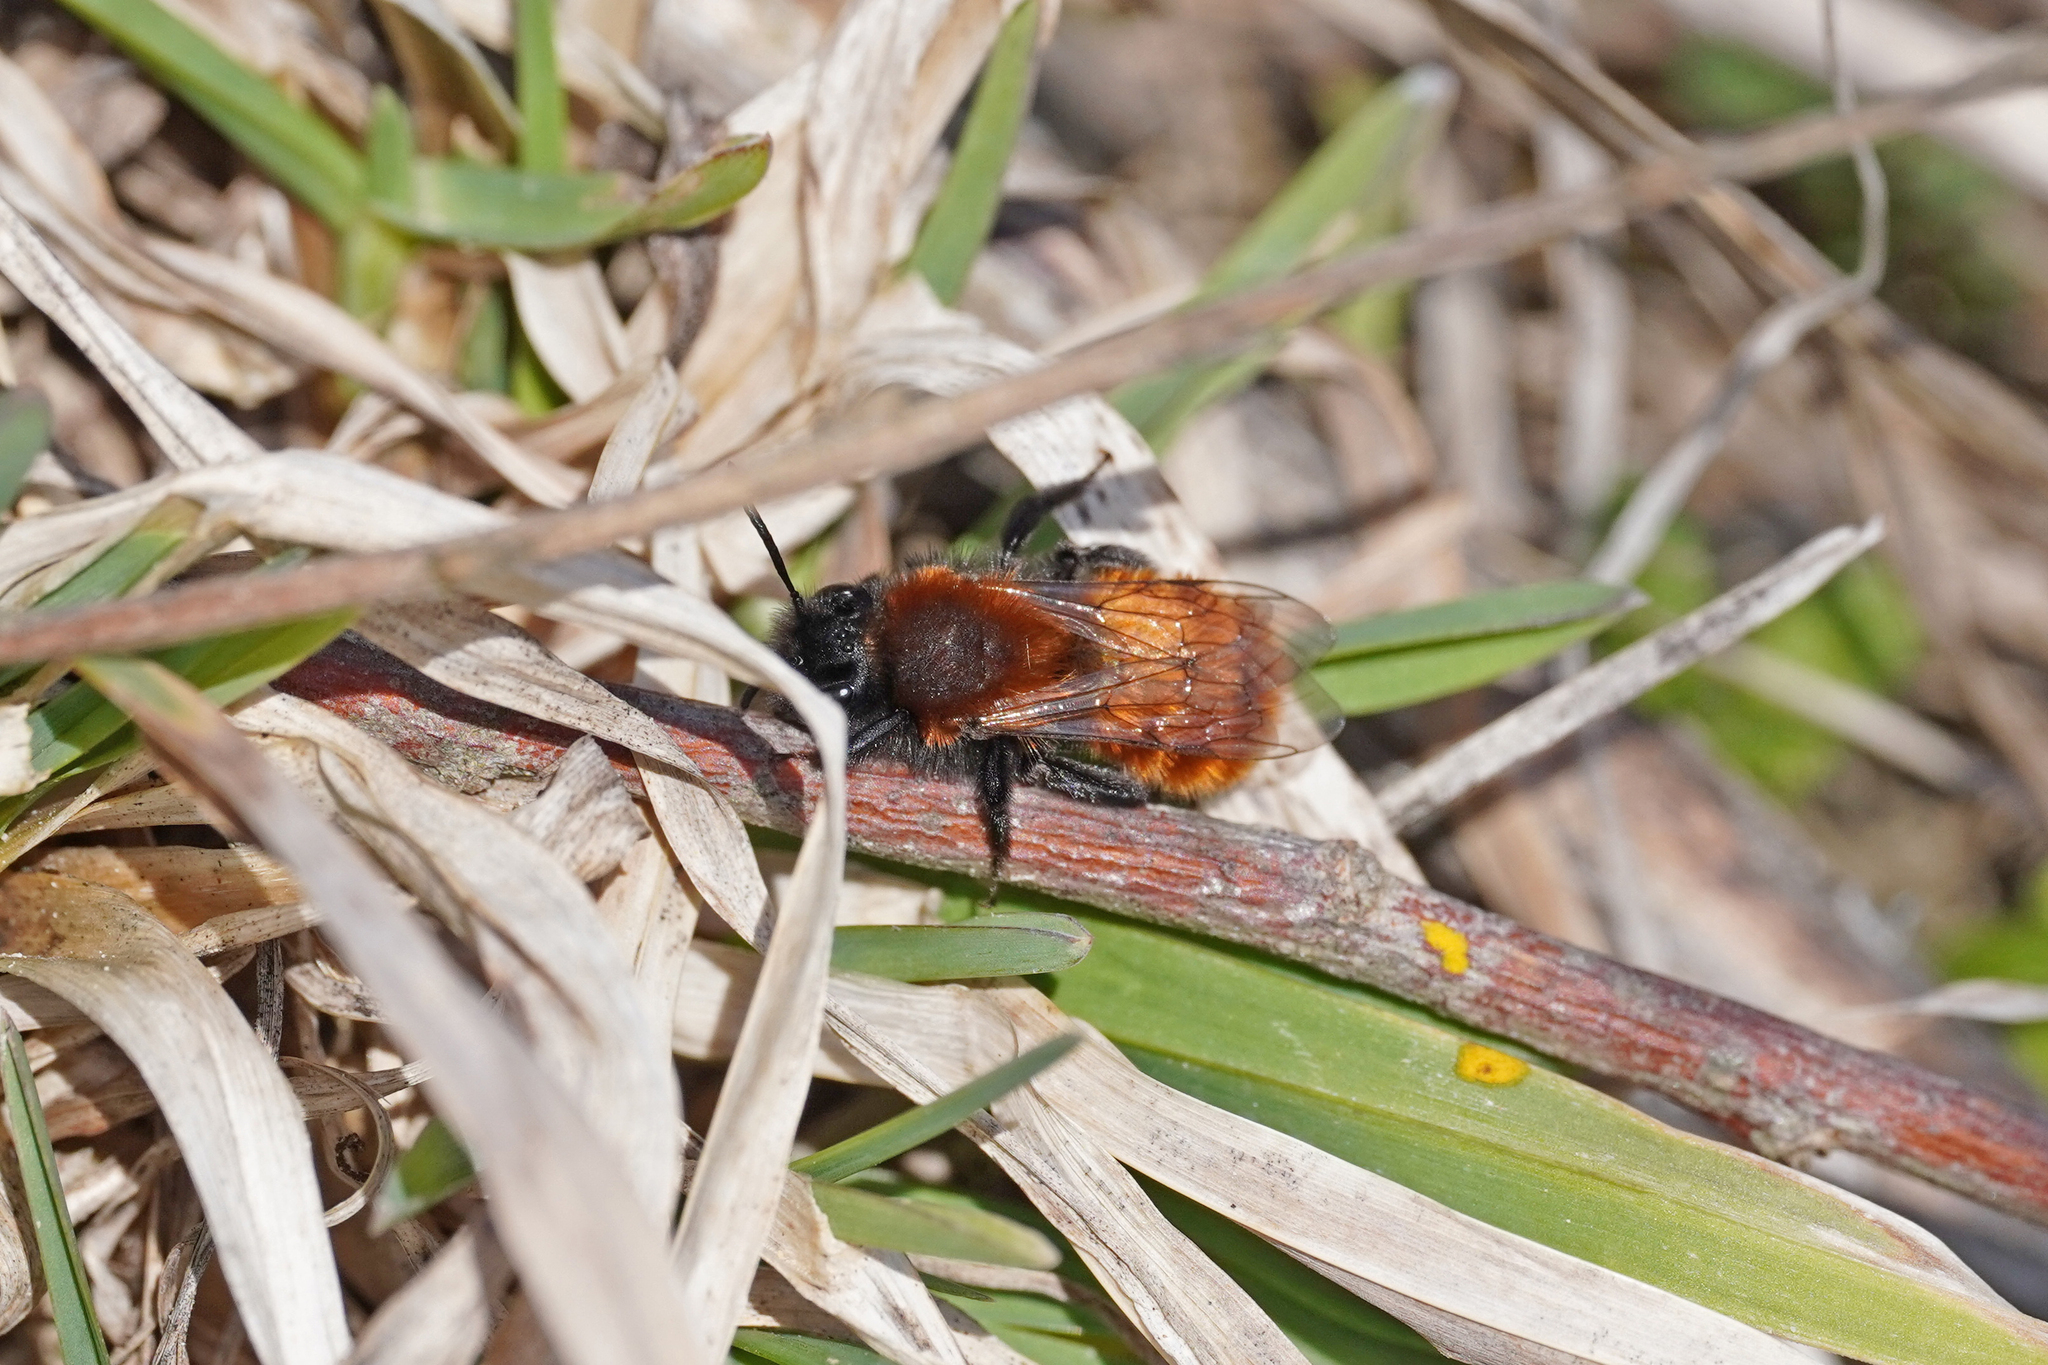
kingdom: Animalia
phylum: Arthropoda
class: Insecta
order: Hymenoptera
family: Andrenidae
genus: Andrena
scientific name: Andrena fulva
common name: Tawny mining bee
